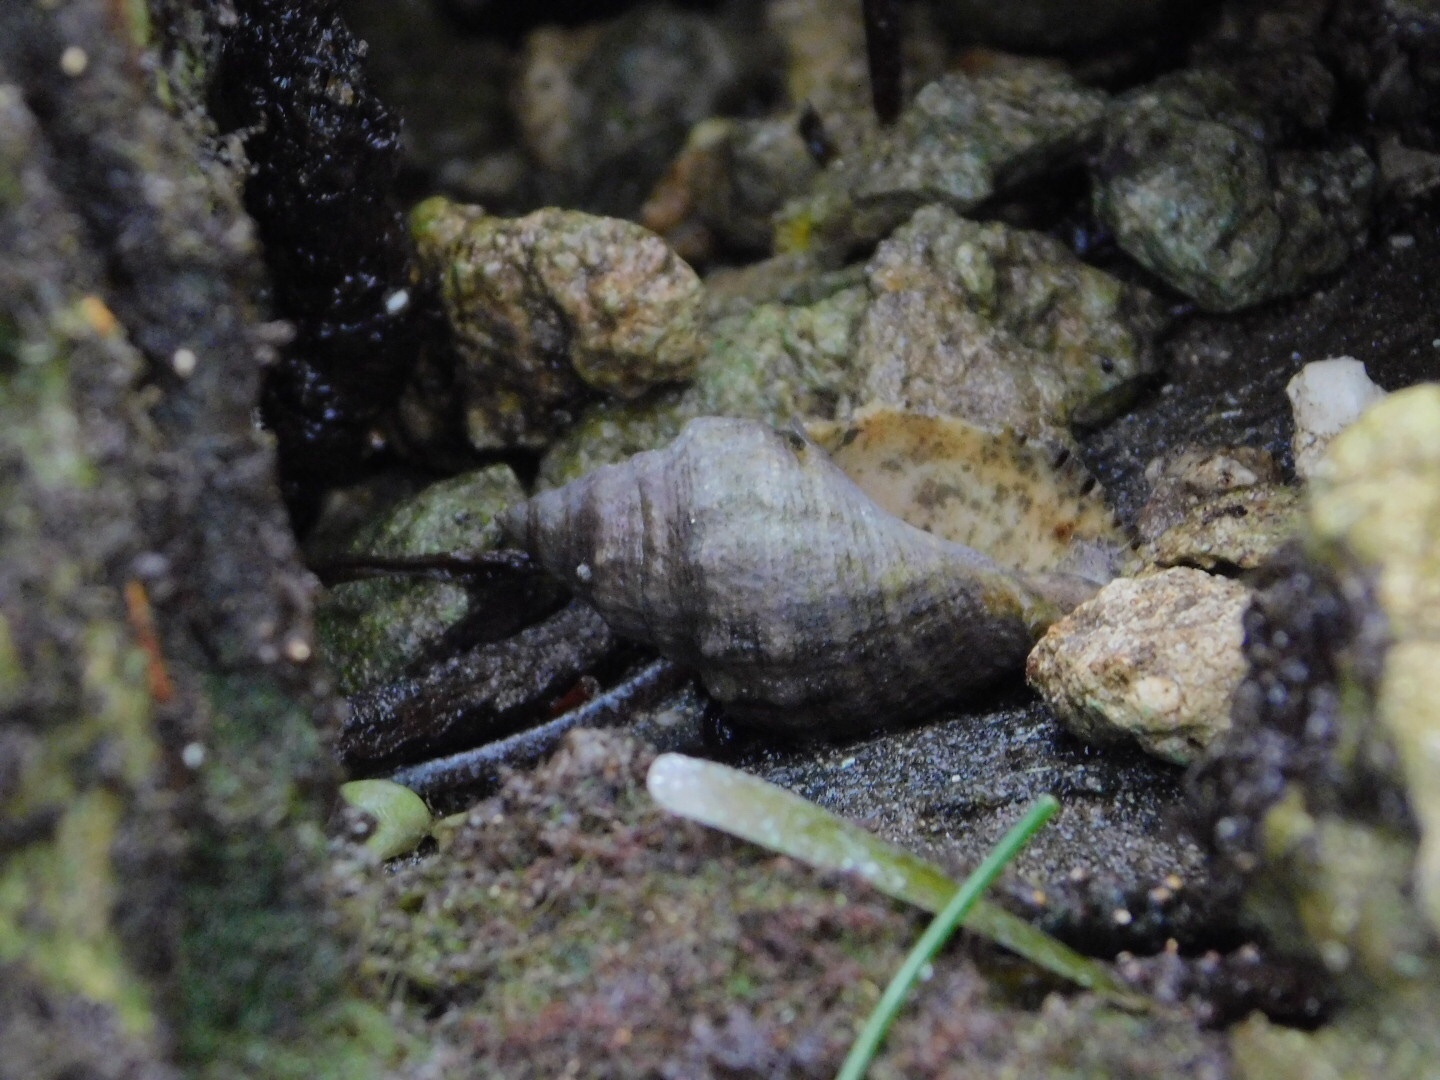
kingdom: Animalia
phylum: Mollusca
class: Gastropoda
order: Neogastropoda
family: Muricidae
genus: Stramonita
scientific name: Stramonita floridana
